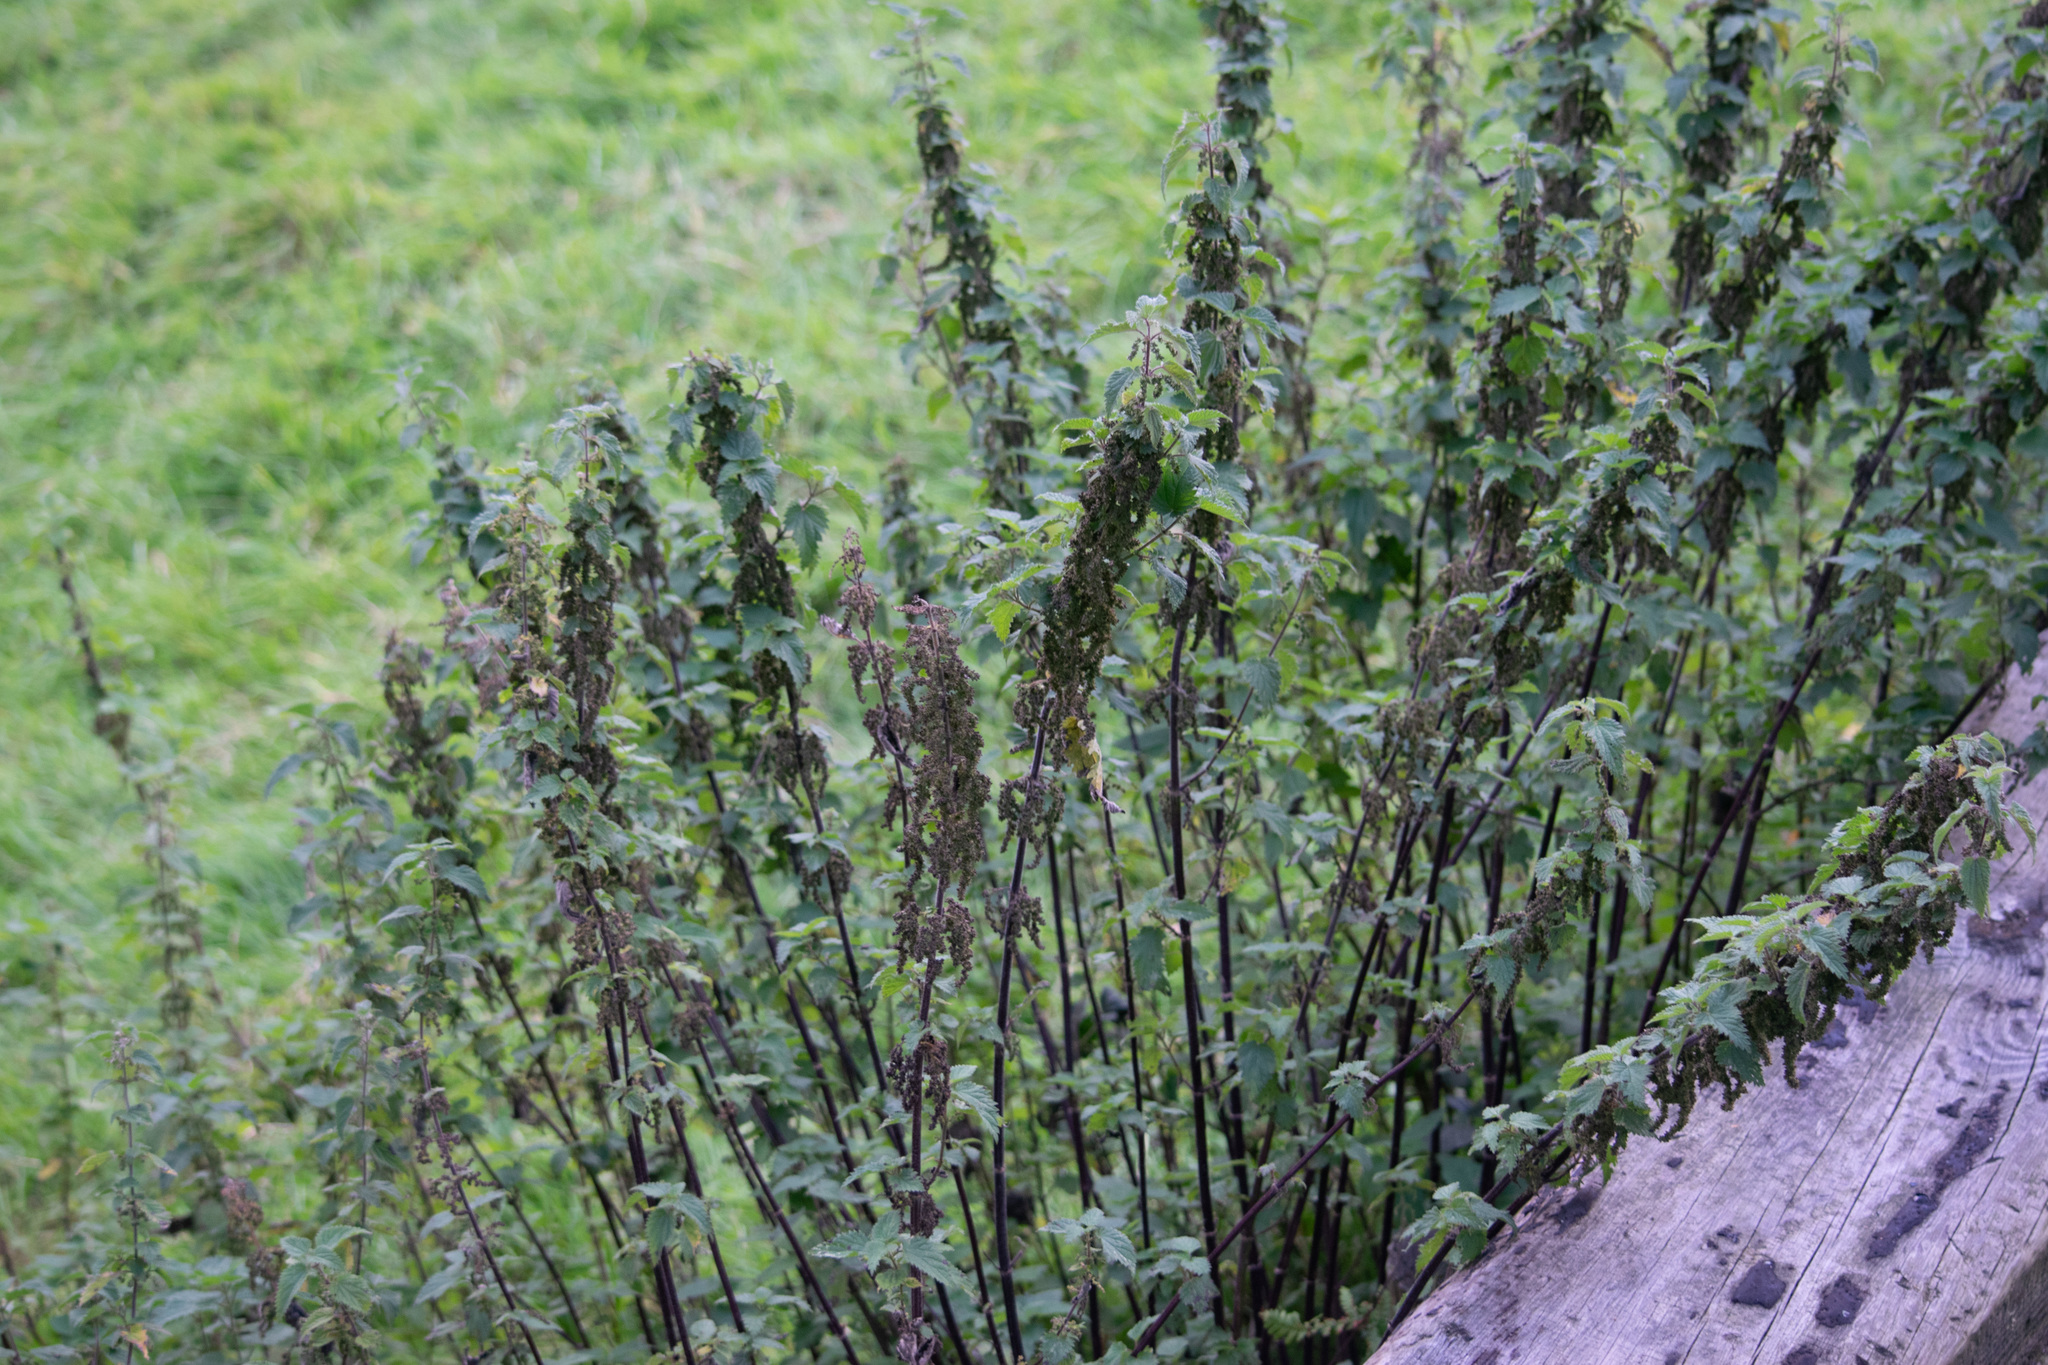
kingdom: Plantae
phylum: Tracheophyta
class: Magnoliopsida
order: Rosales
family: Urticaceae
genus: Urtica
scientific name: Urtica dioica
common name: Common nettle
